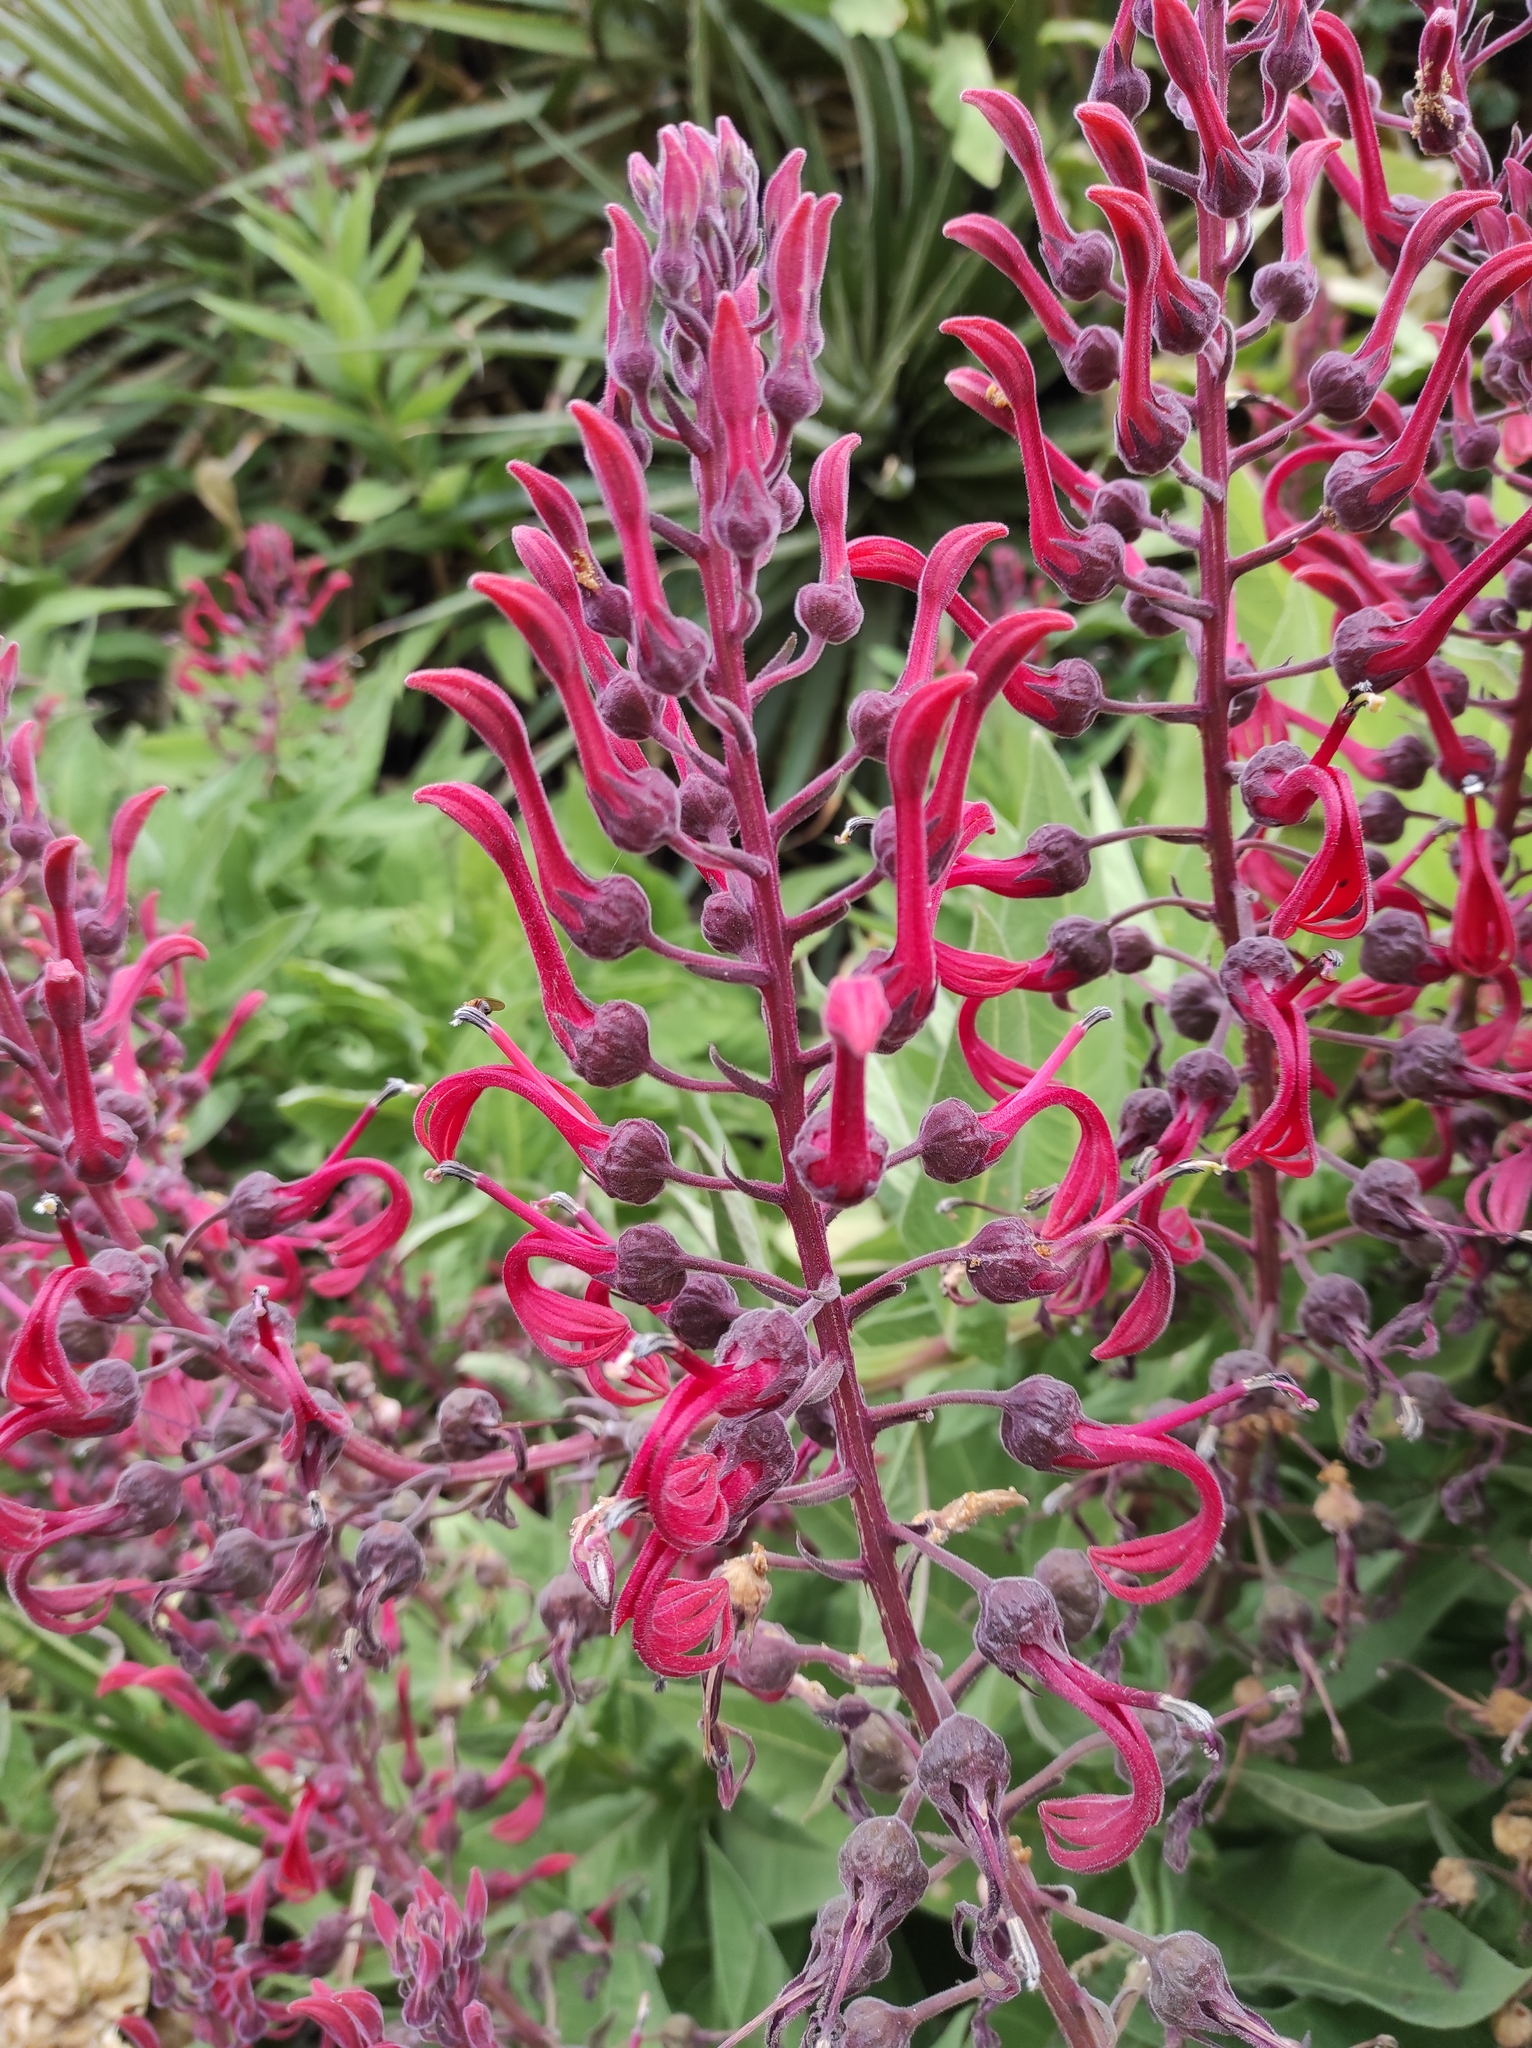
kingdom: Plantae
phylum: Tracheophyta
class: Magnoliopsida
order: Asterales
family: Campanulaceae
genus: Lobelia
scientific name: Lobelia tupa
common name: Devil's-tobacco
